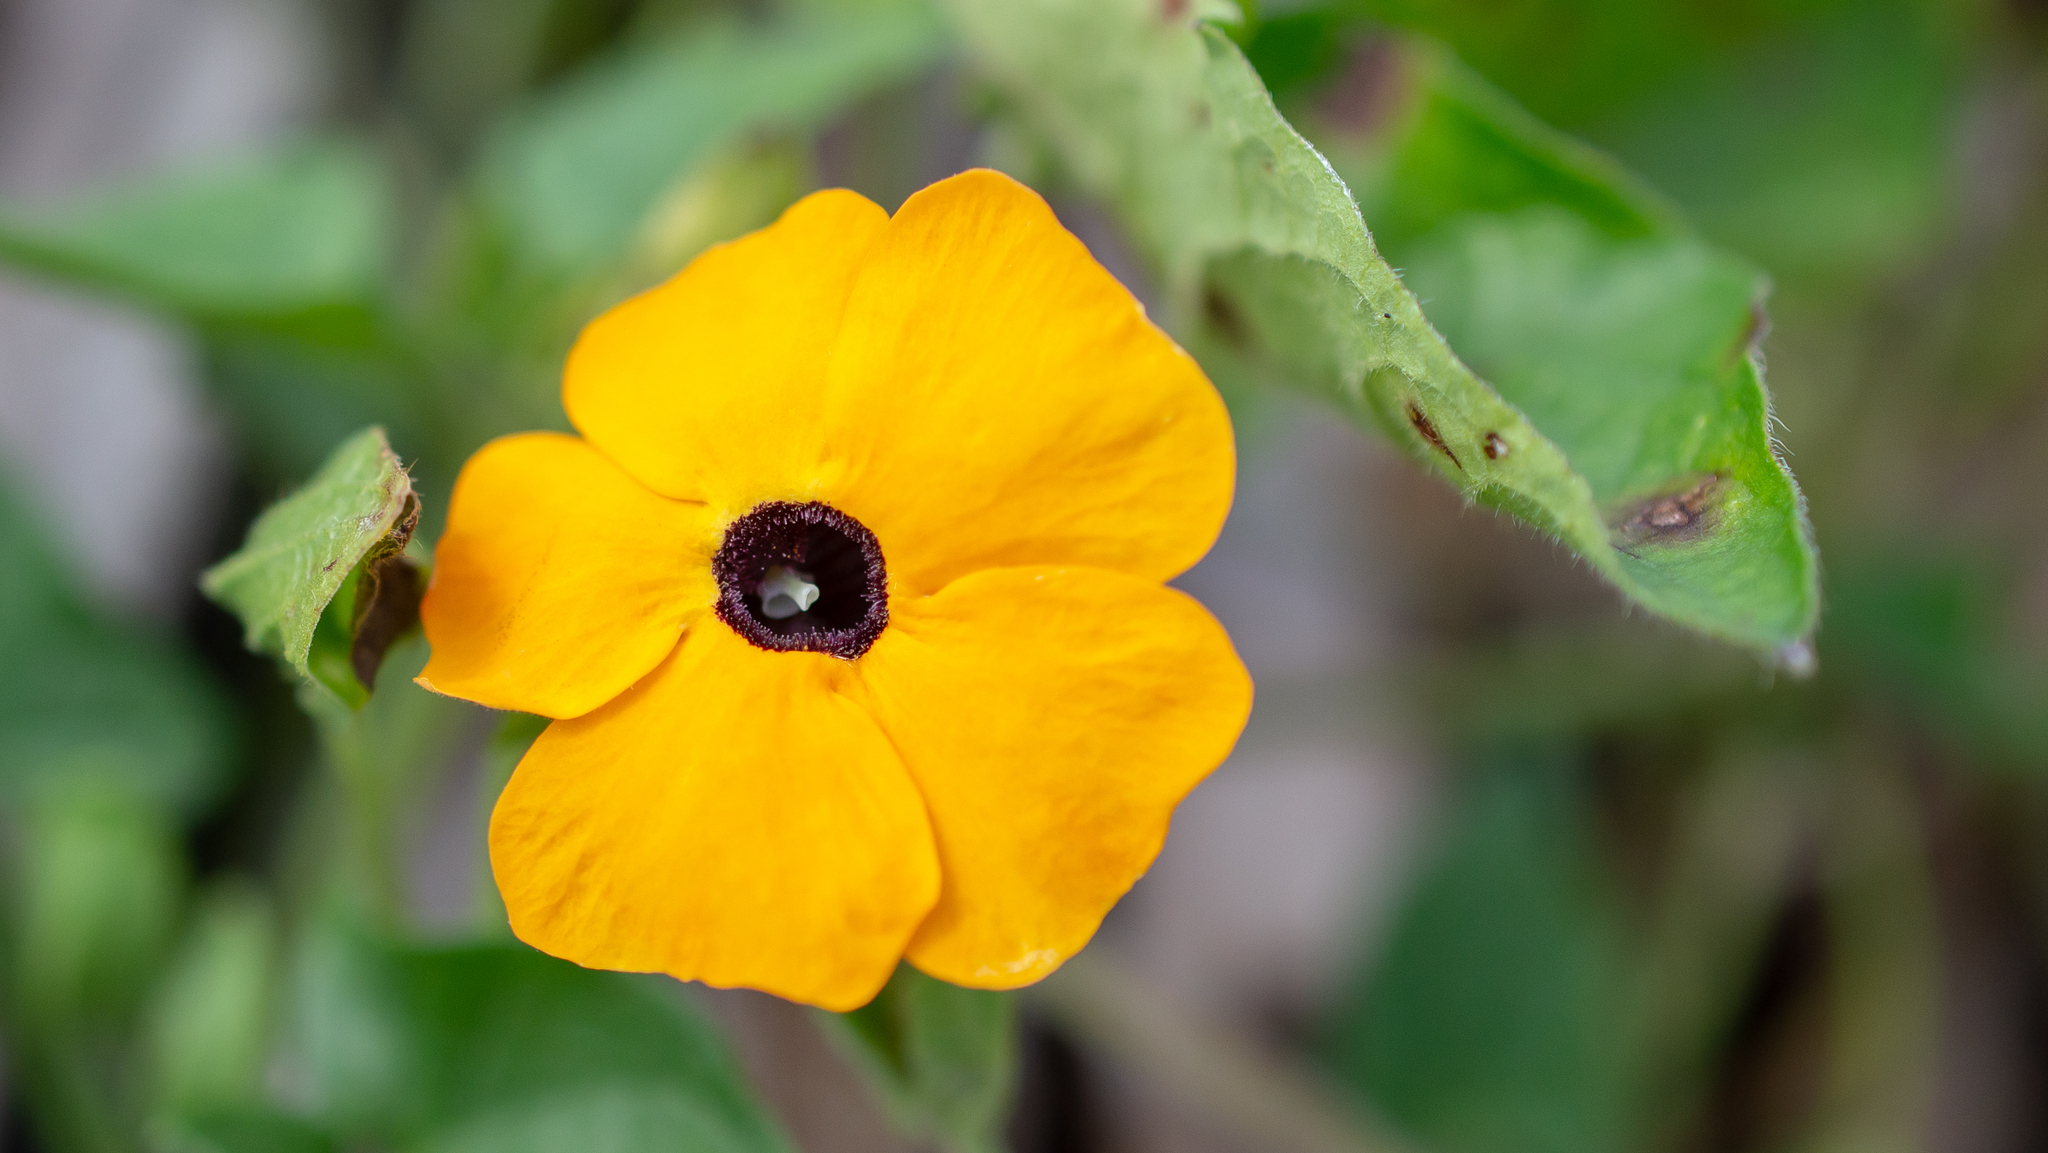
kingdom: Plantae
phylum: Tracheophyta
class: Magnoliopsida
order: Lamiales
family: Acanthaceae
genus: Thunbergia
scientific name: Thunbergia alata
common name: Blackeyed susan vine
